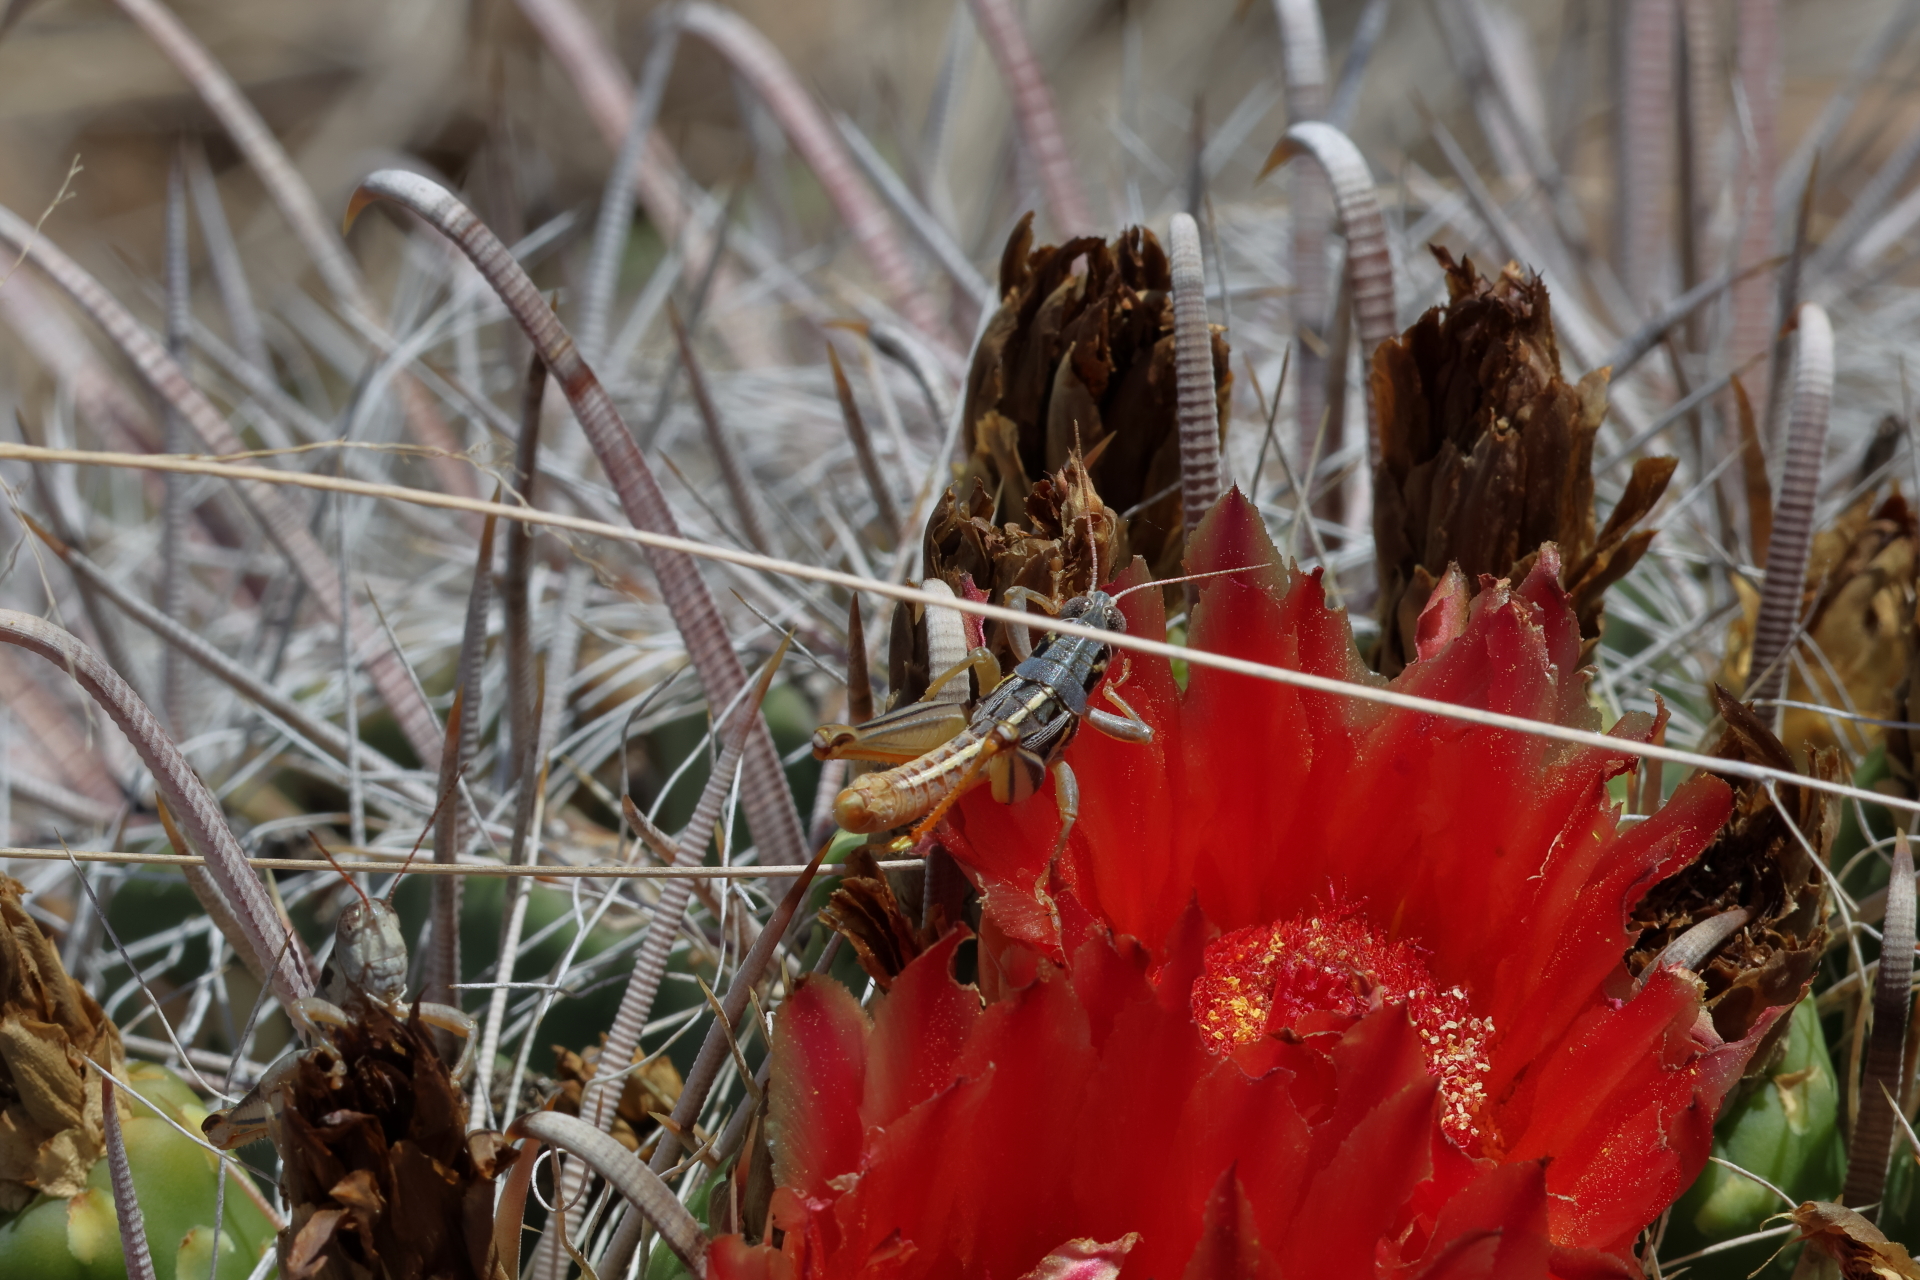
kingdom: Animalia
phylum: Arthropoda
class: Insecta
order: Orthoptera
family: Acrididae
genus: Barytettix
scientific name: Barytettix humphreysii
